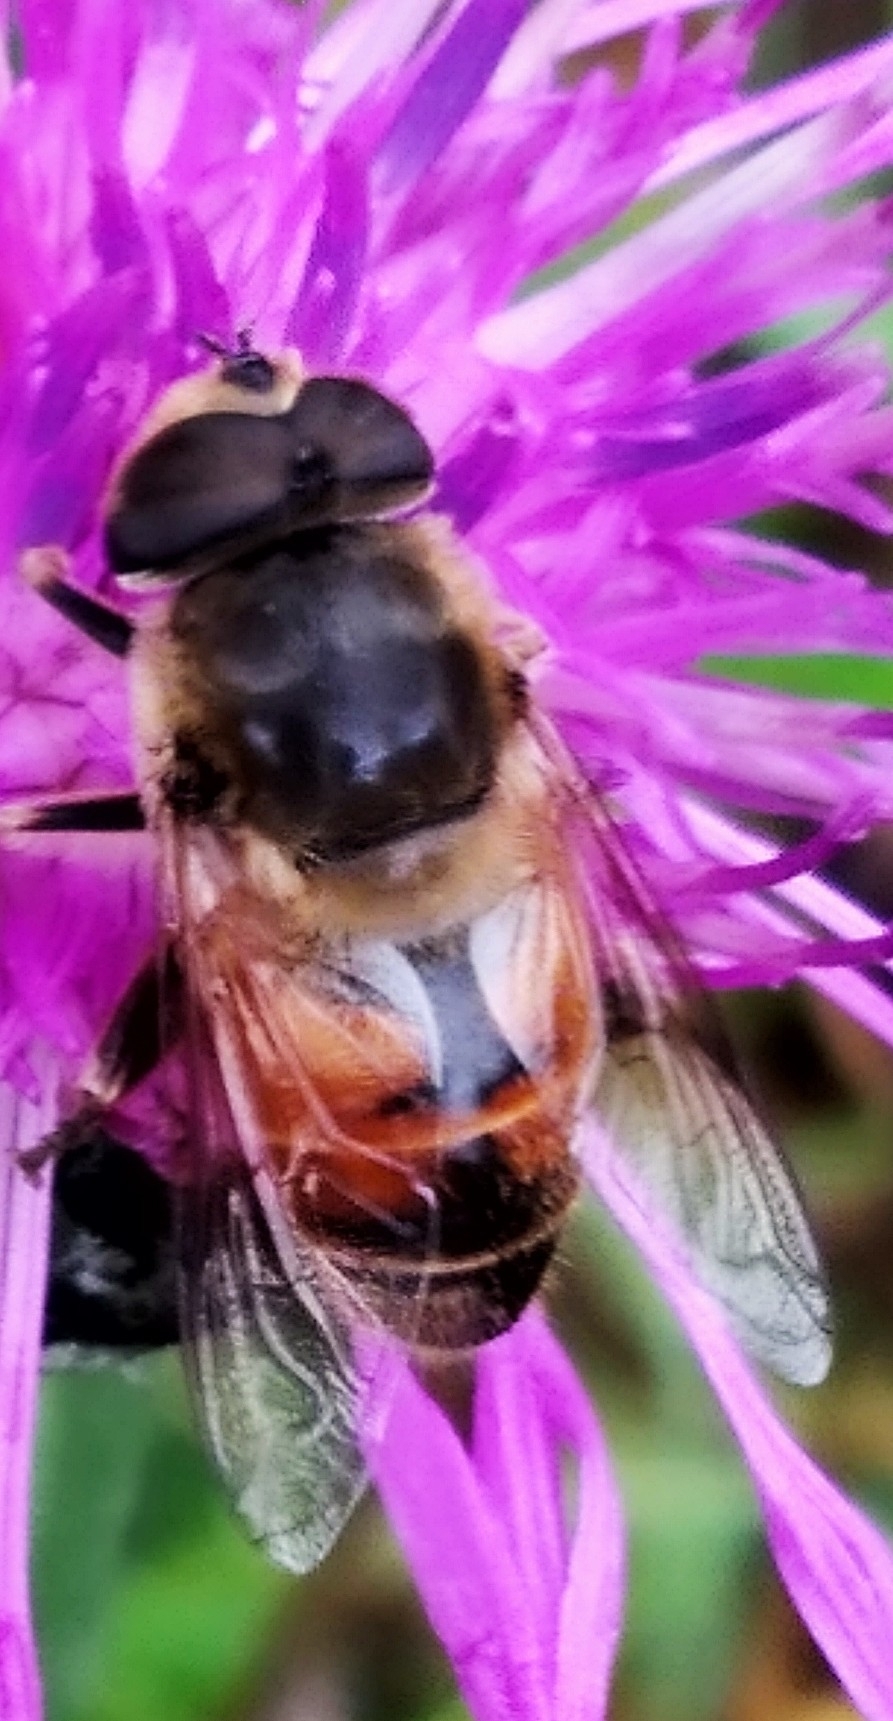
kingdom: Animalia
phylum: Arthropoda
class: Insecta
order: Diptera
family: Syrphidae
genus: Eristalis
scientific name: Eristalis tenax
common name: Drone fly
